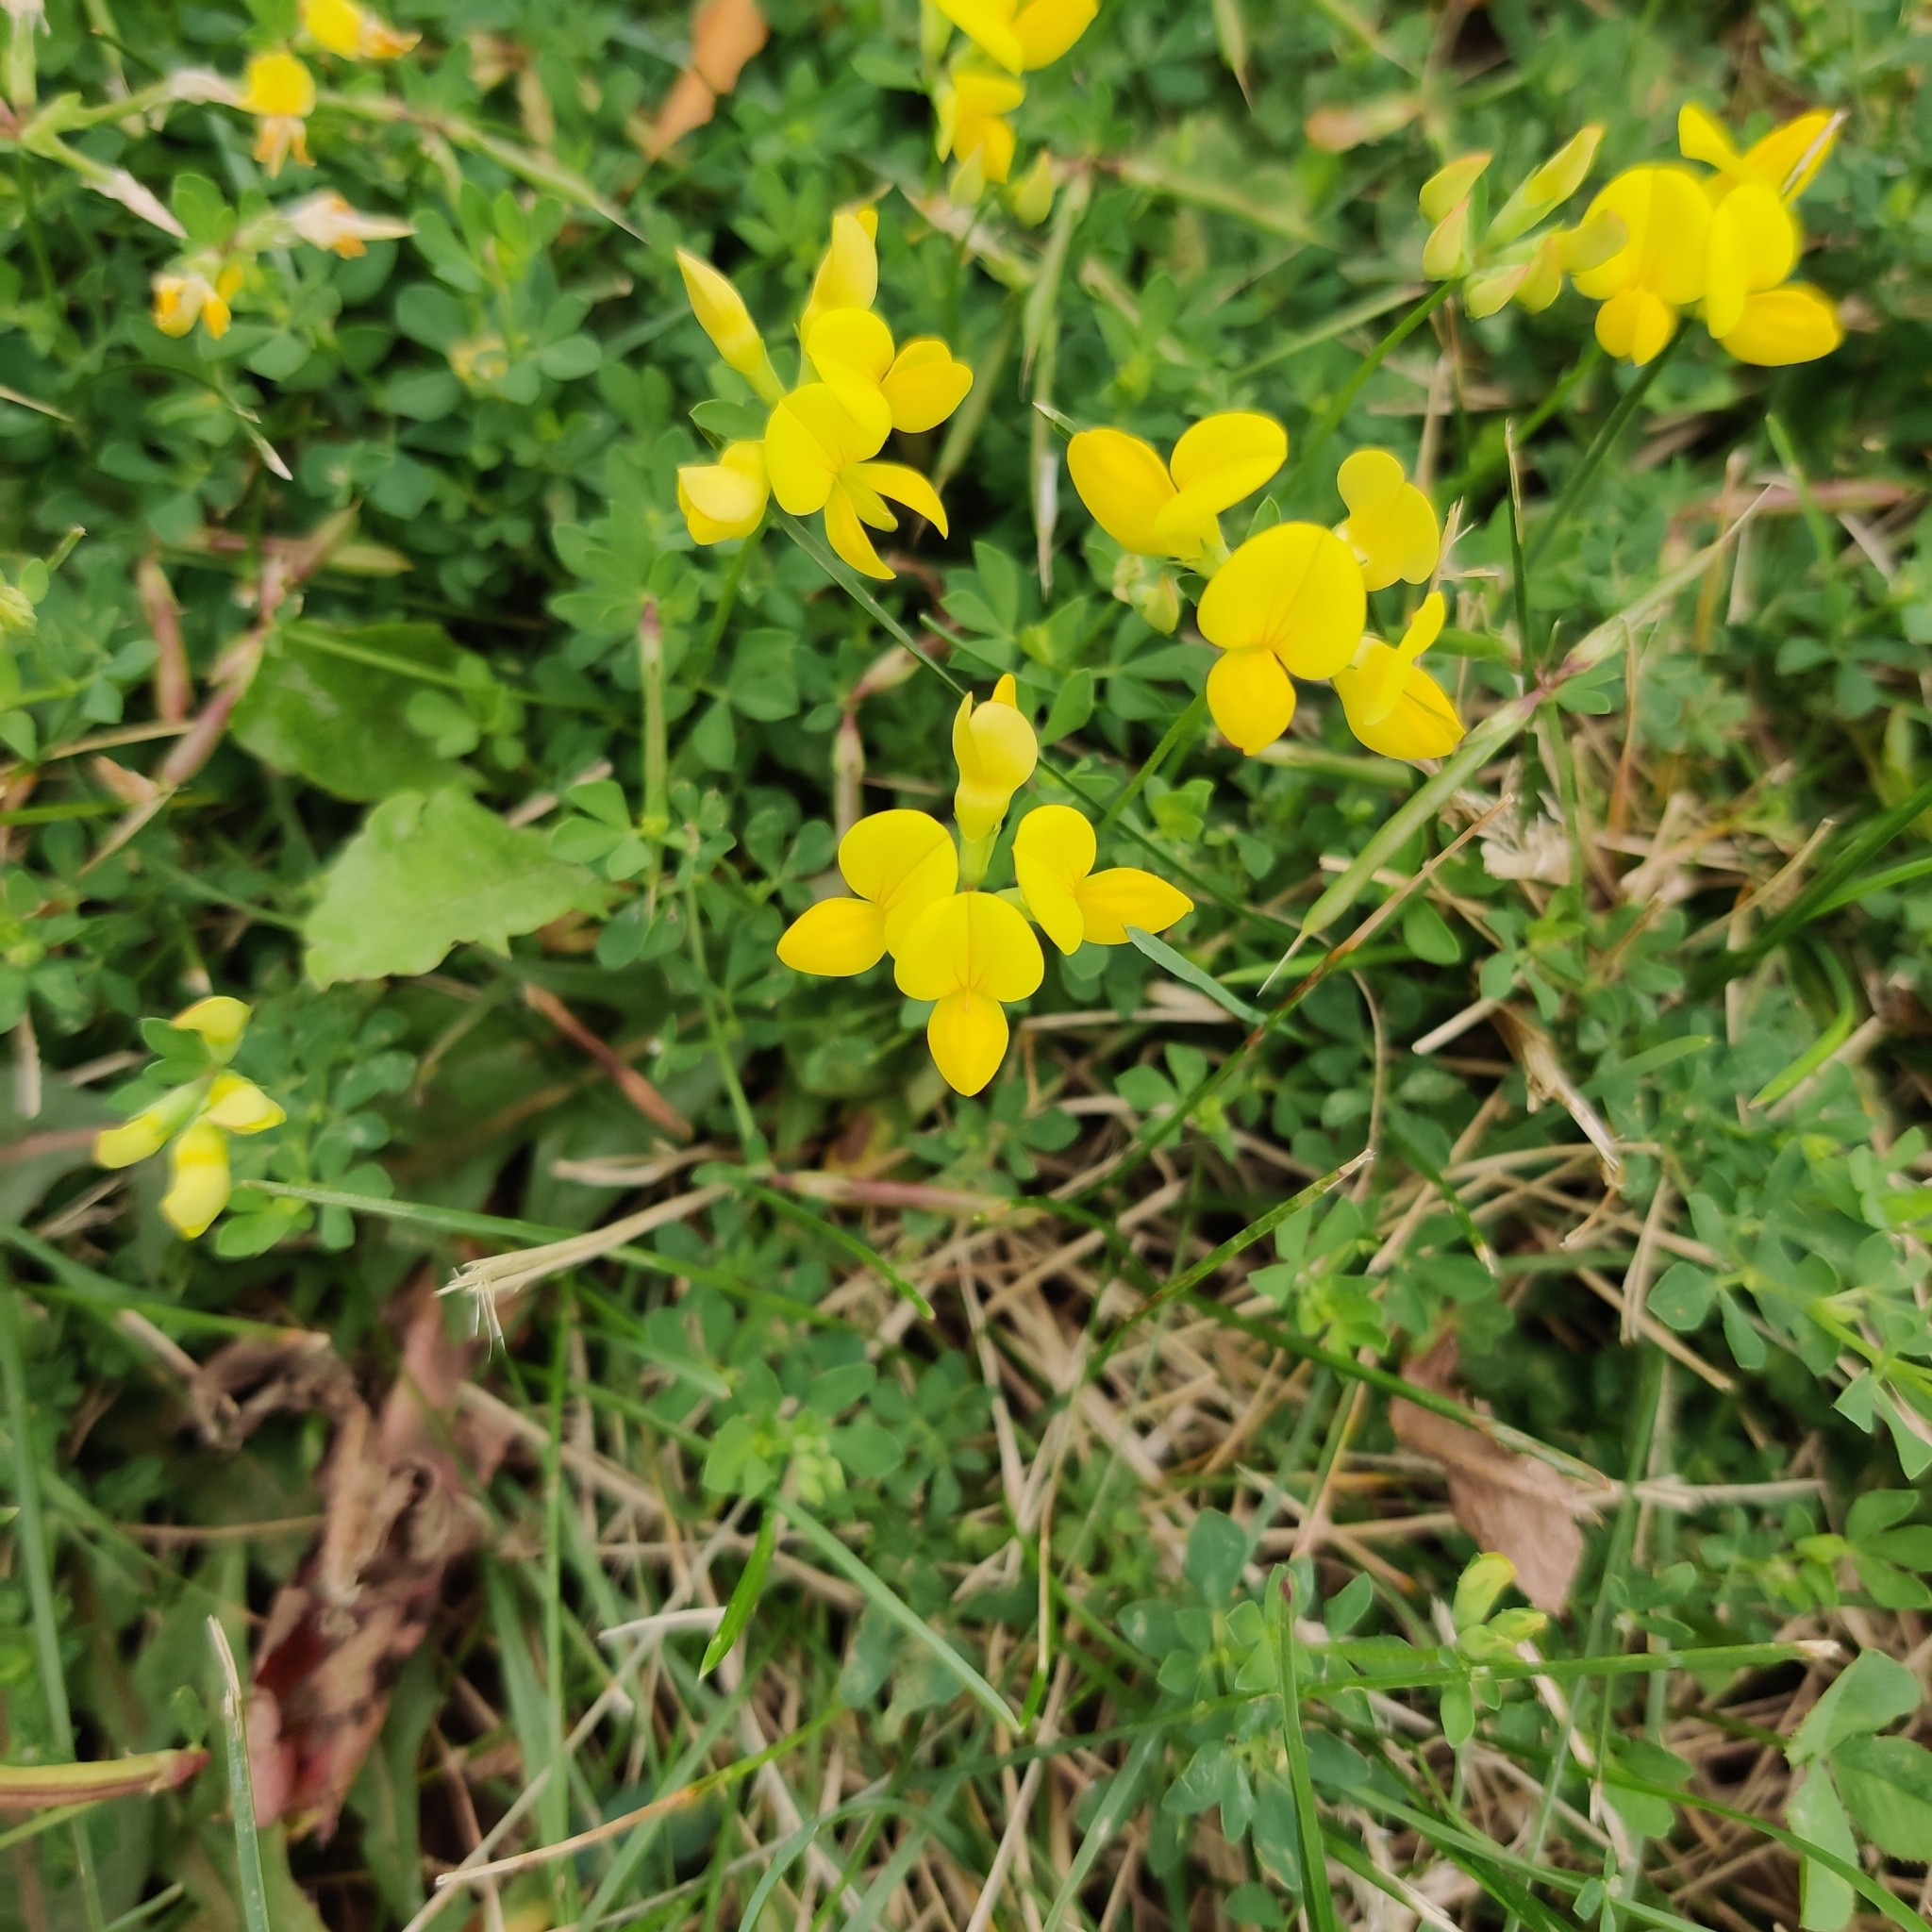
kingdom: Plantae
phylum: Tracheophyta
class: Magnoliopsida
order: Fabales
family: Fabaceae
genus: Lotus
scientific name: Lotus corniculatus
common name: Common bird's-foot-trefoil
